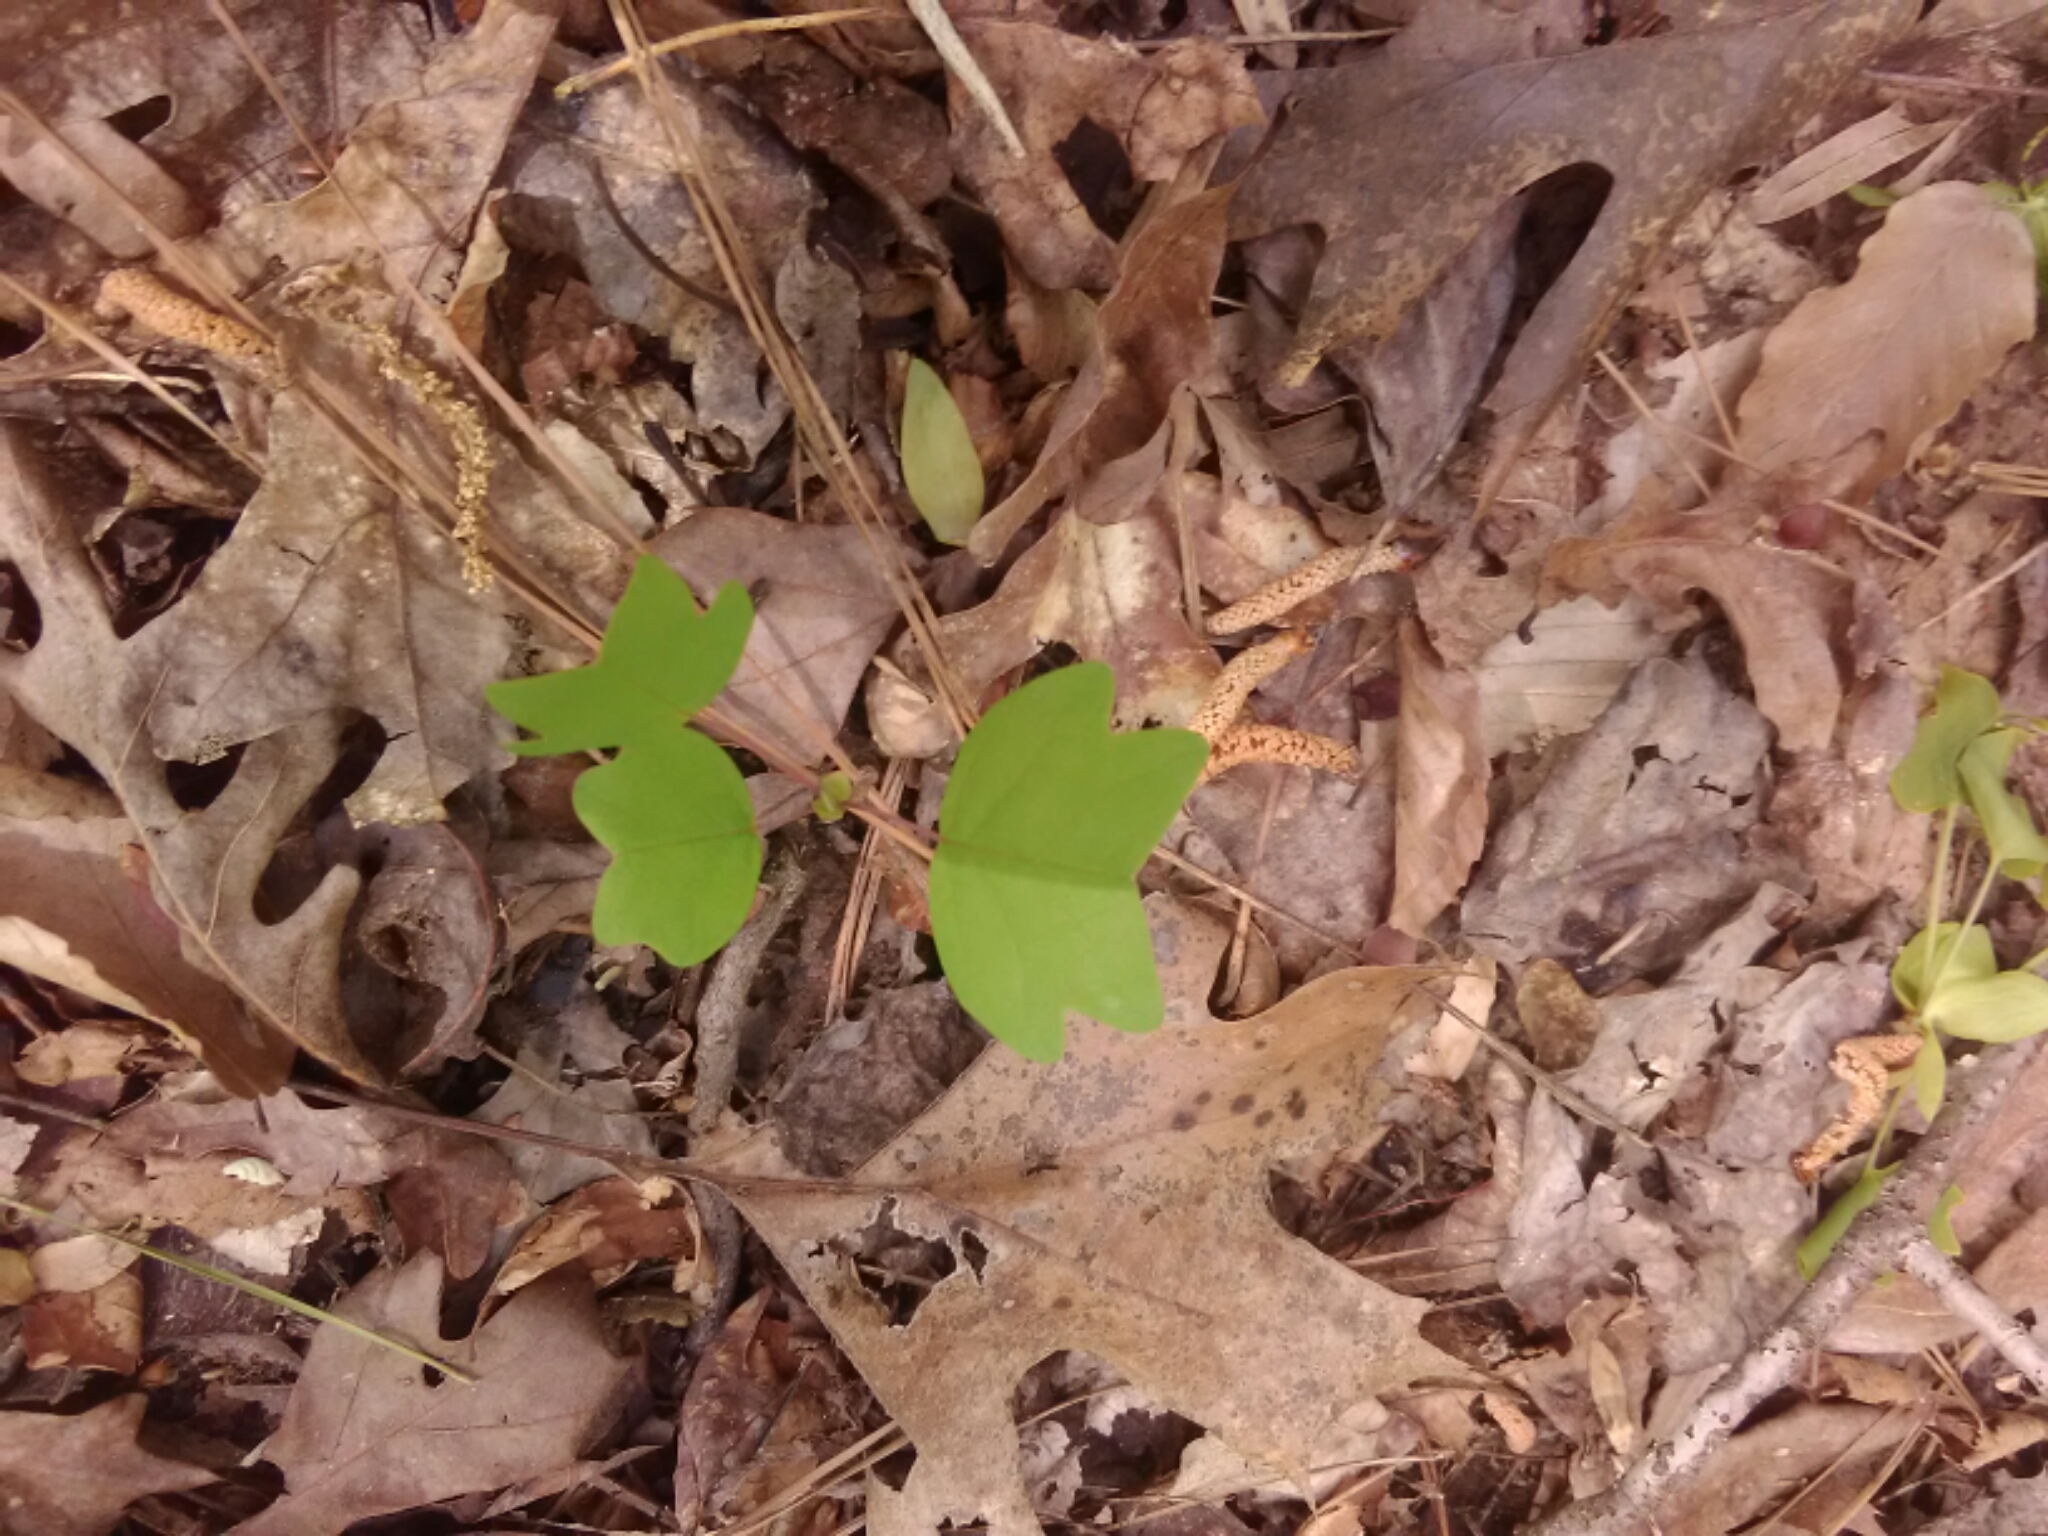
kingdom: Plantae
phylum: Tracheophyta
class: Magnoliopsida
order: Magnoliales
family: Magnoliaceae
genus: Liriodendron
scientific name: Liriodendron tulipifera
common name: Tulip tree
